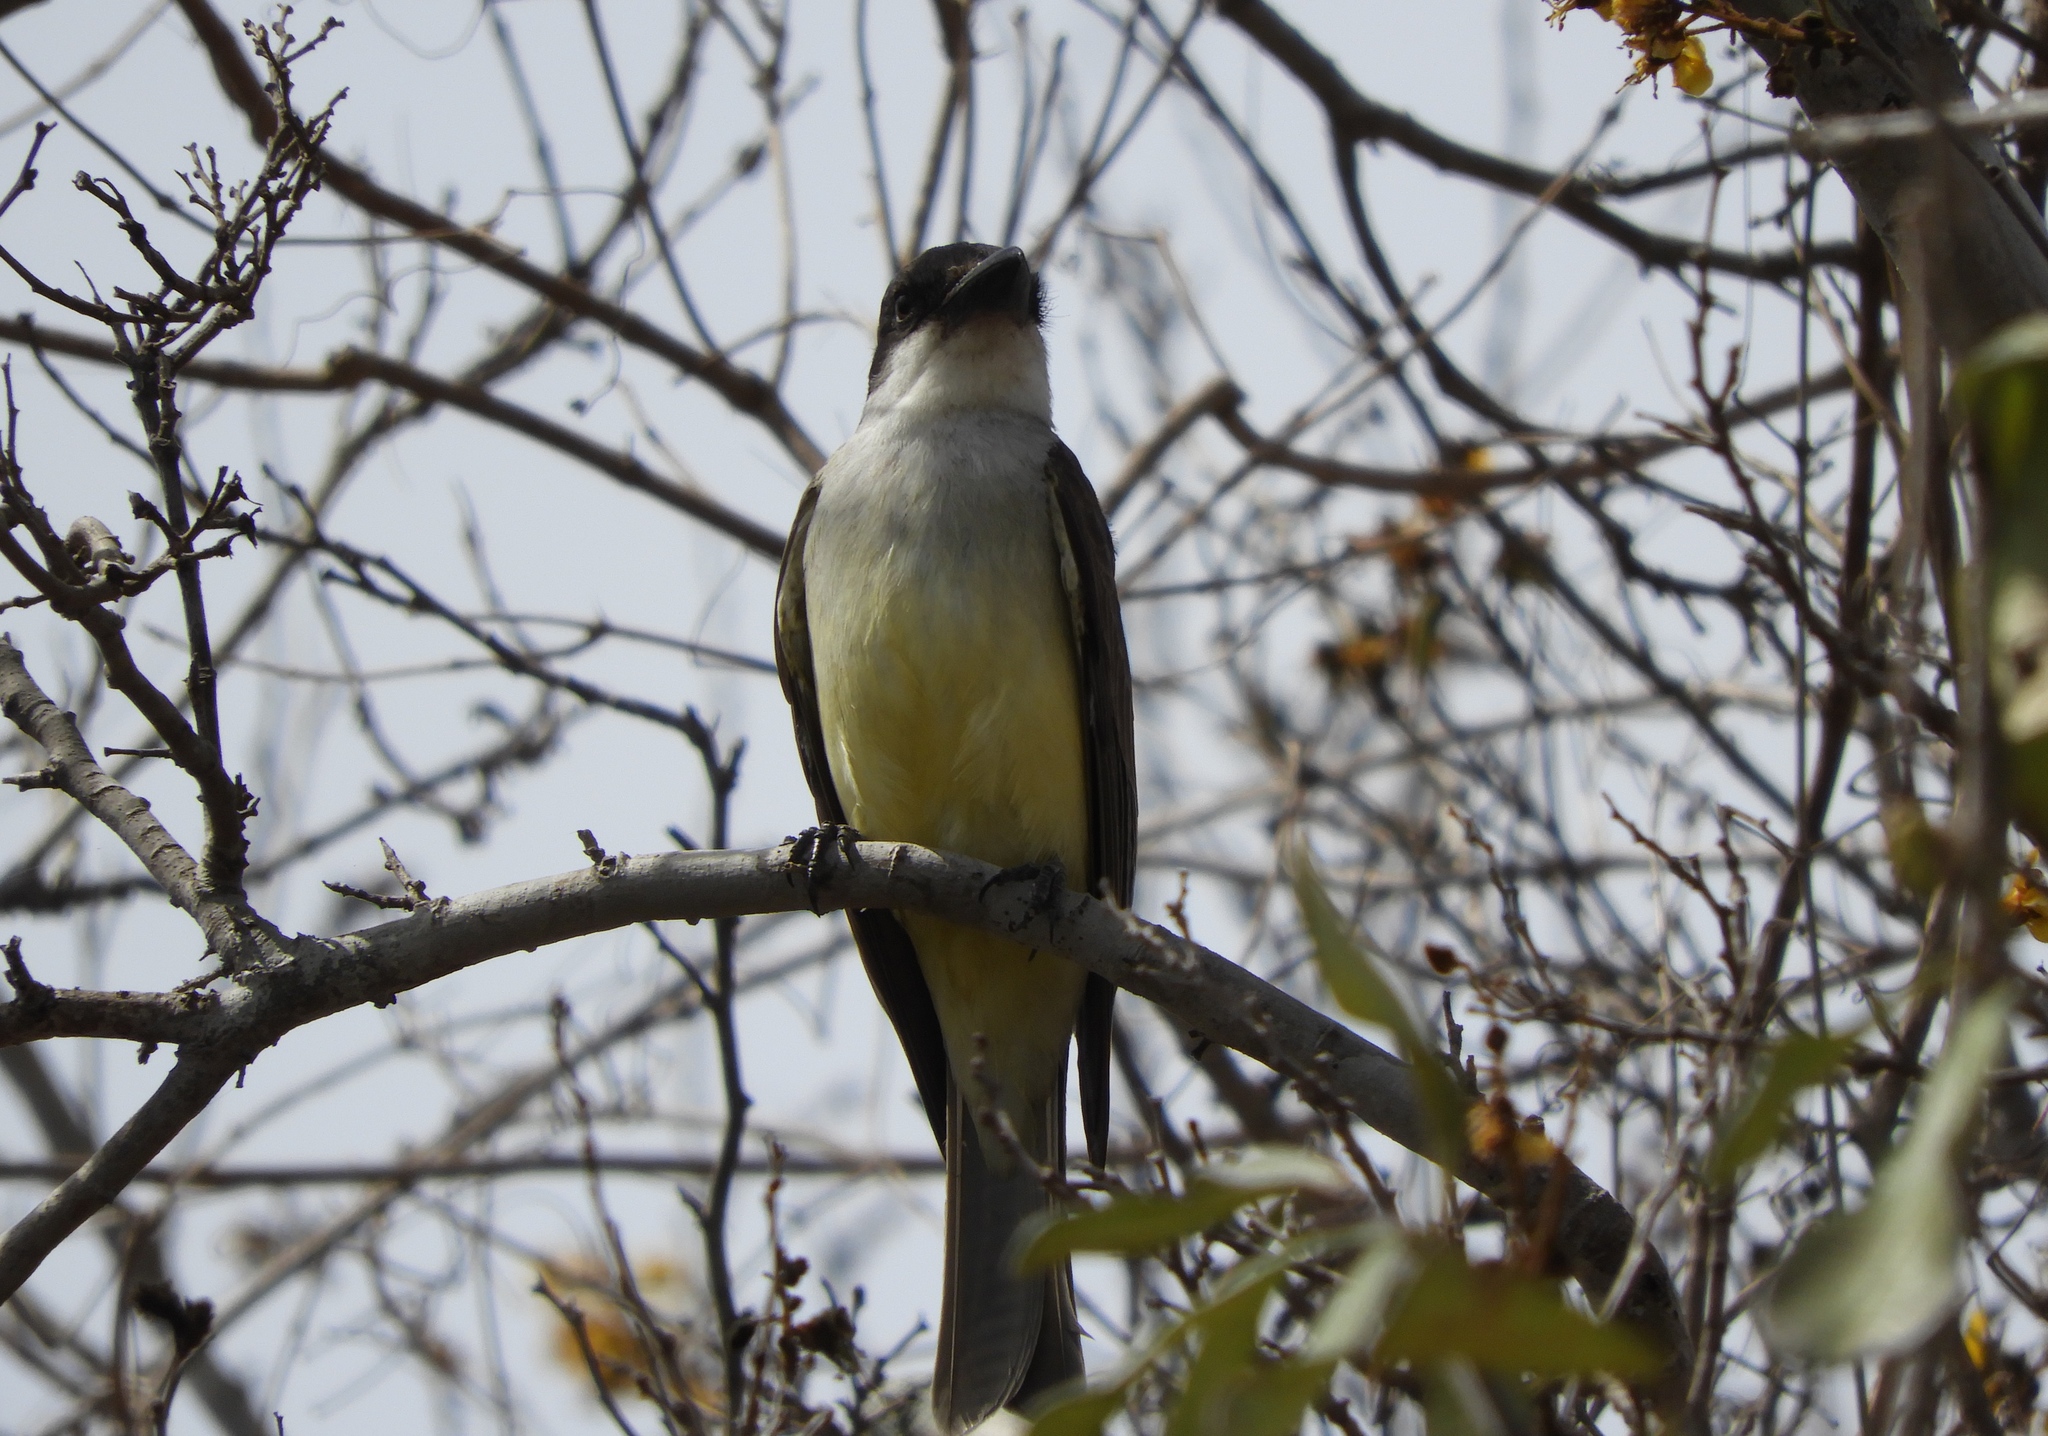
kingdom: Animalia
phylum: Chordata
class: Aves
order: Passeriformes
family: Tyrannidae
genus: Tyrannus
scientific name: Tyrannus crassirostris
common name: Thick-billed kingbird
